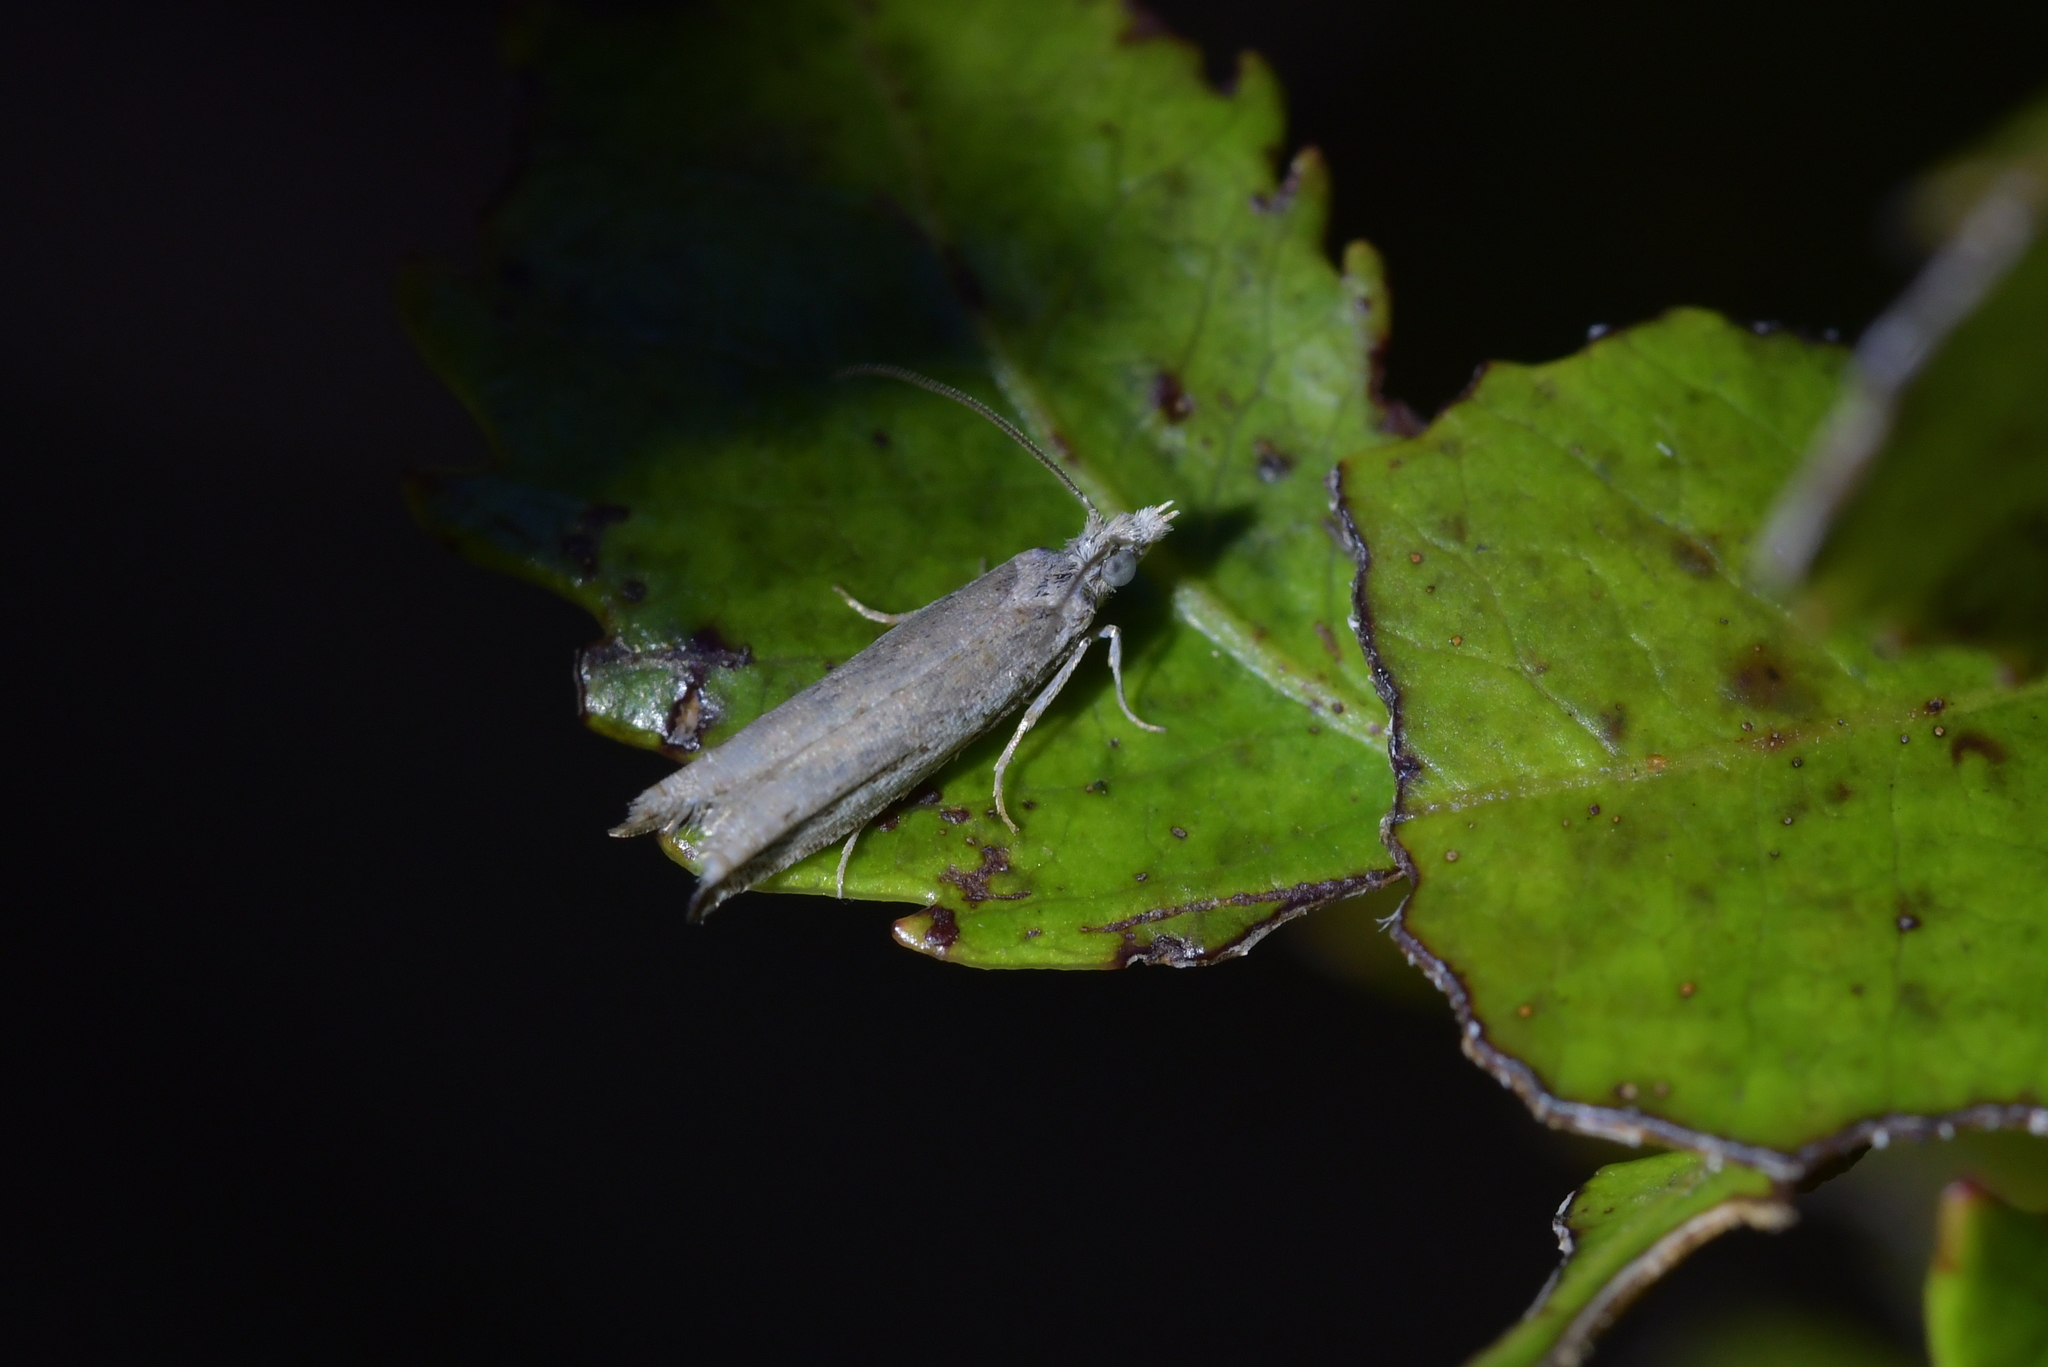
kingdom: Animalia
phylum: Arthropoda
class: Insecta
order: Lepidoptera
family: Tortricidae
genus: Holocola
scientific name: Holocola zopherana
